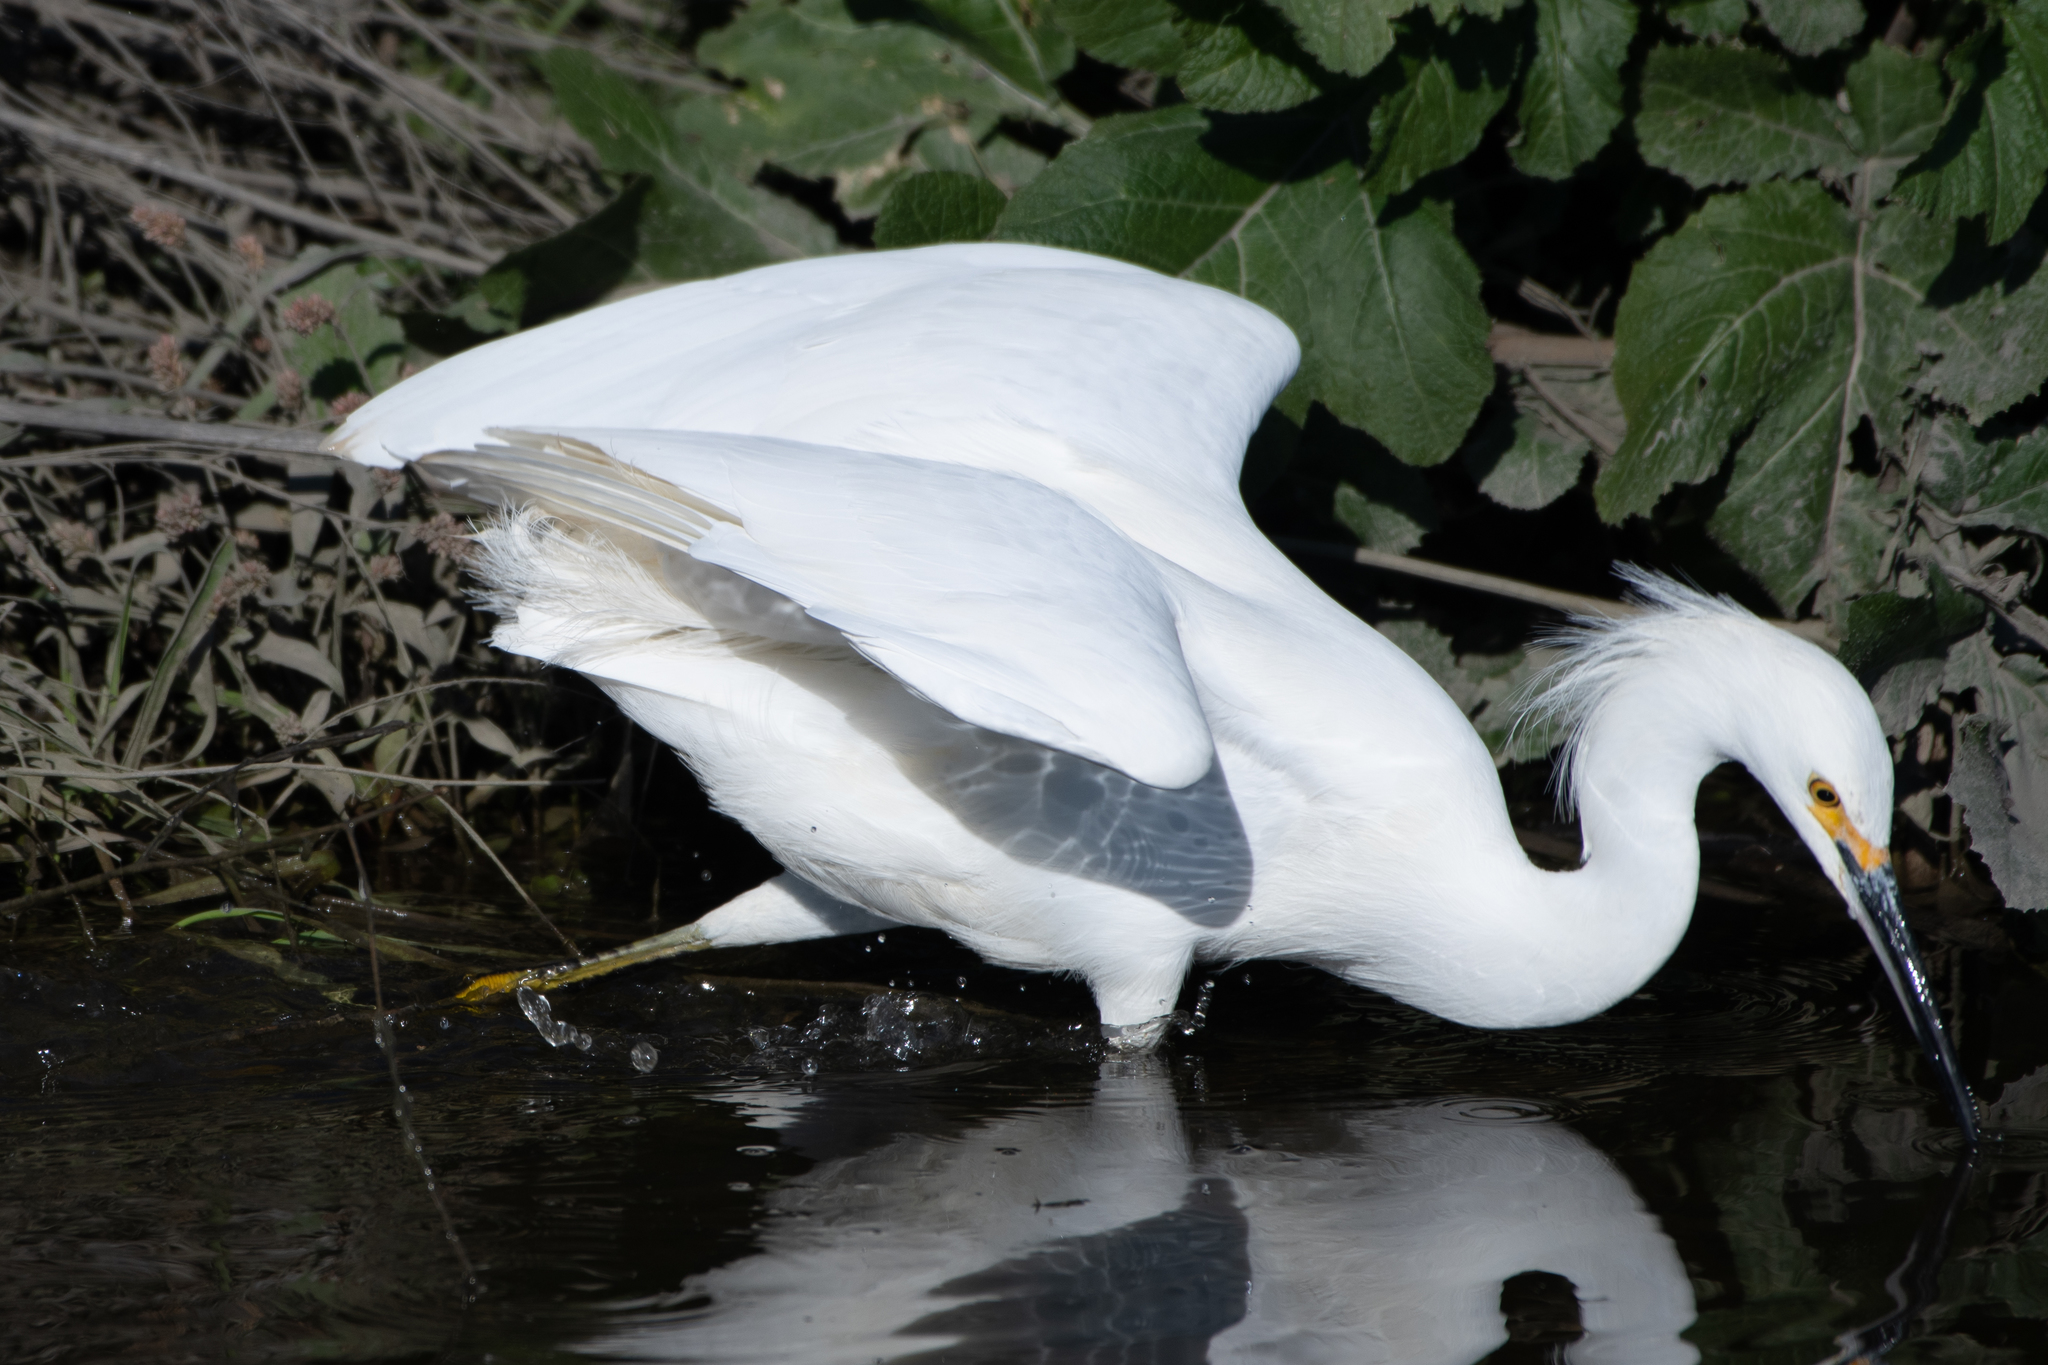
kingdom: Animalia
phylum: Chordata
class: Aves
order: Pelecaniformes
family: Ardeidae
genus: Egretta
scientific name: Egretta thula
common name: Snowy egret
